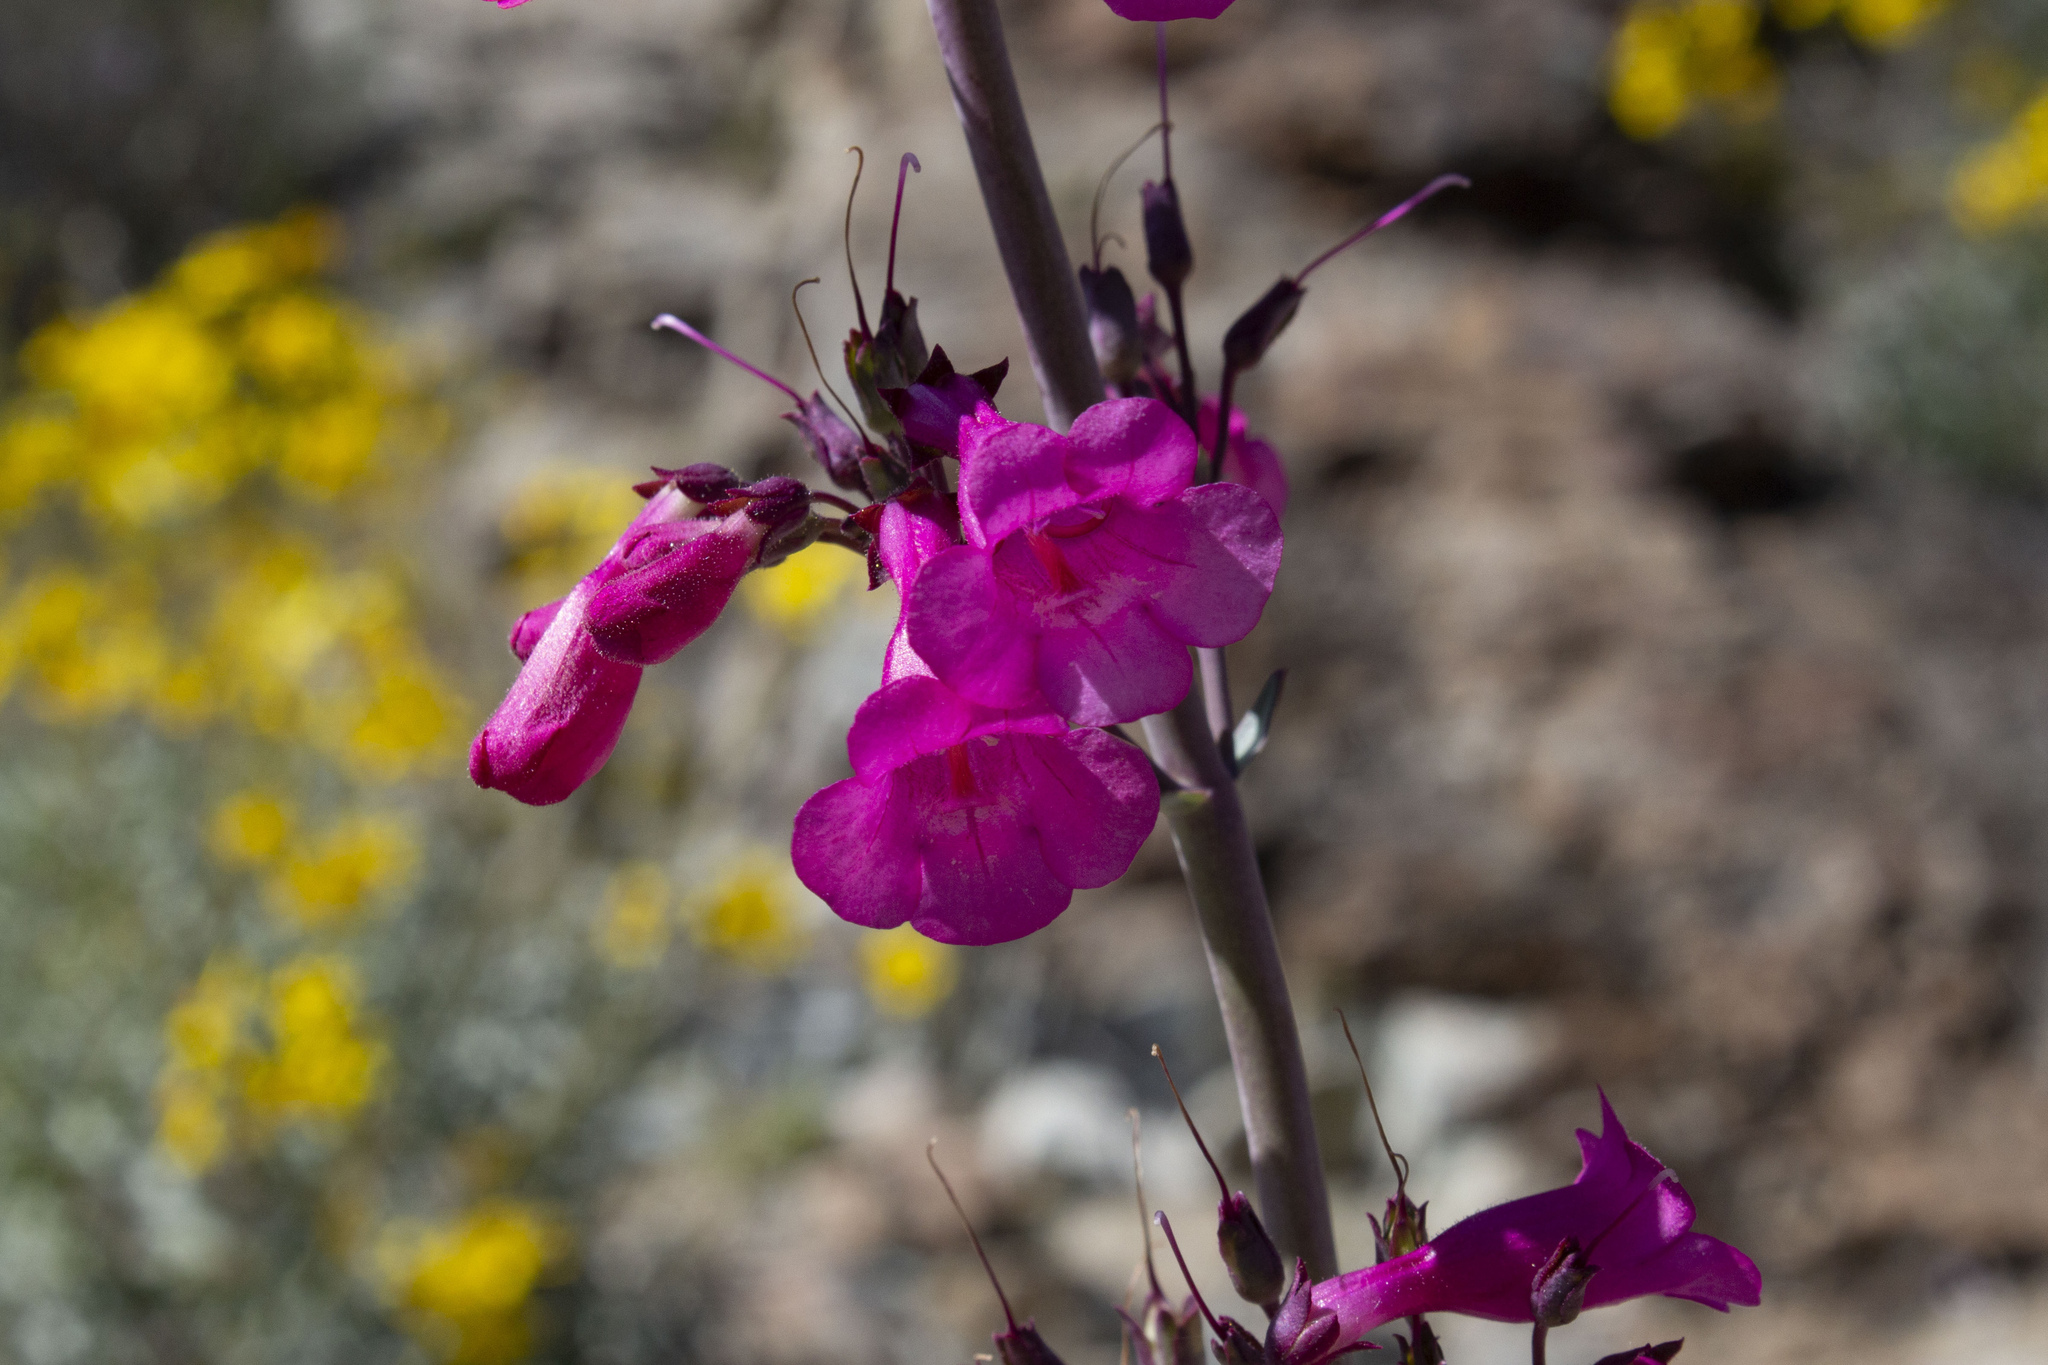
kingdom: Plantae
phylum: Tracheophyta
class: Magnoliopsida
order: Lamiales
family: Plantaginaceae
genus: Penstemon
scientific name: Penstemon parryi
